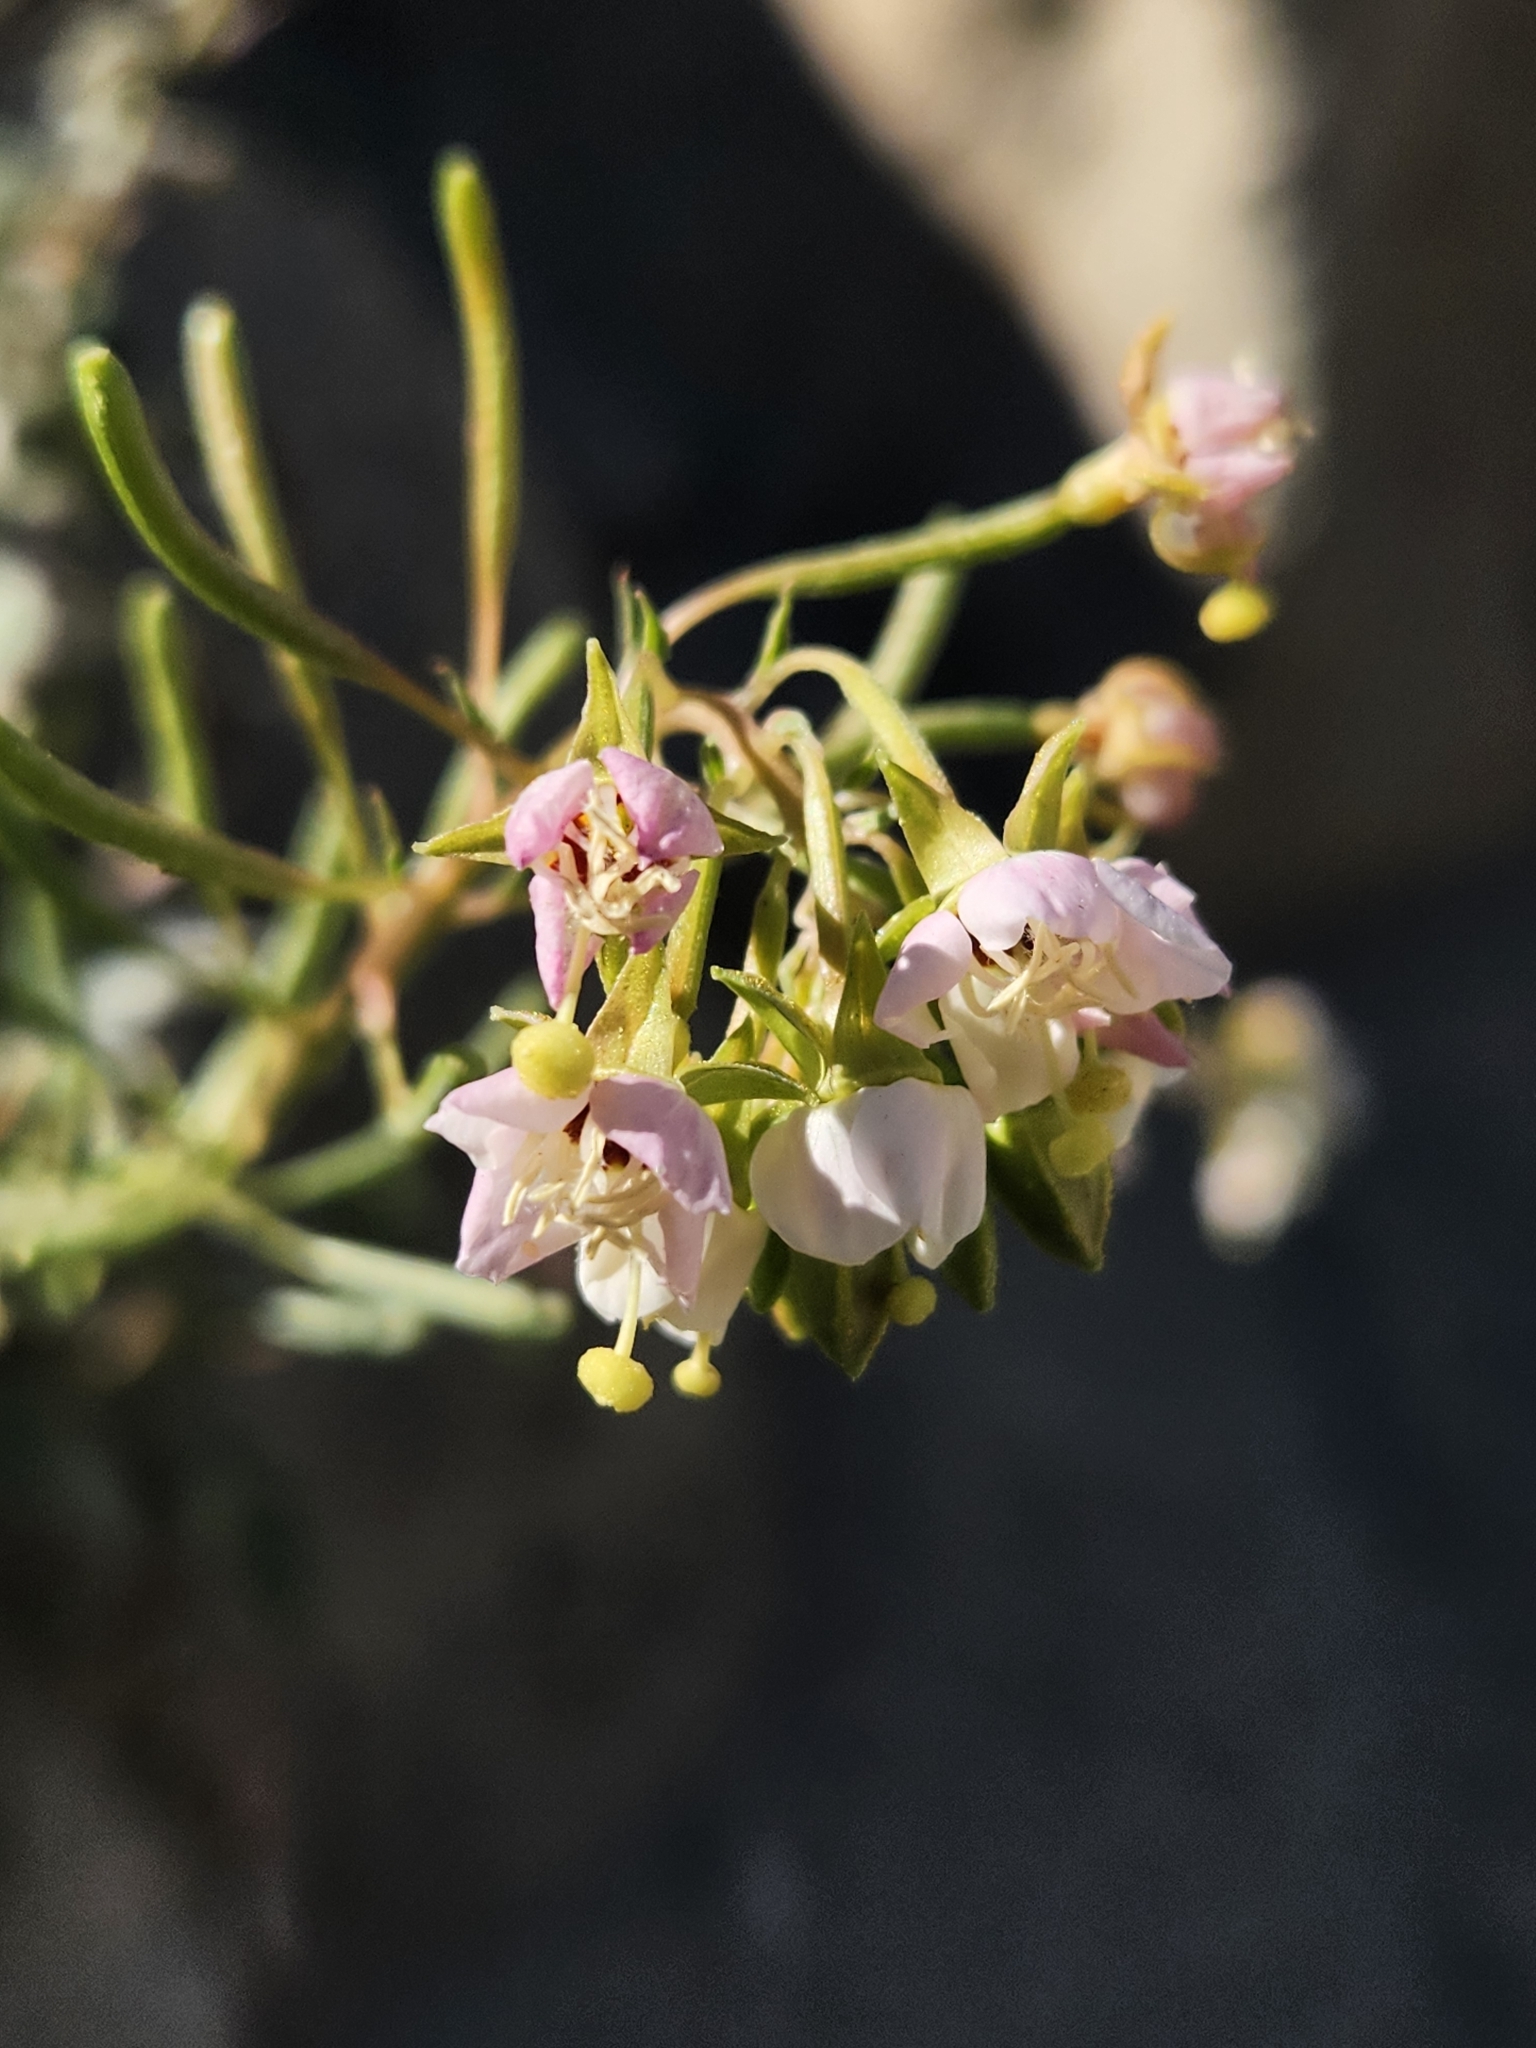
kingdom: Plantae
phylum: Tracheophyta
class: Magnoliopsida
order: Myrtales
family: Onagraceae
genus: Chylismia
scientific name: Chylismia claviformis
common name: Browneyes
